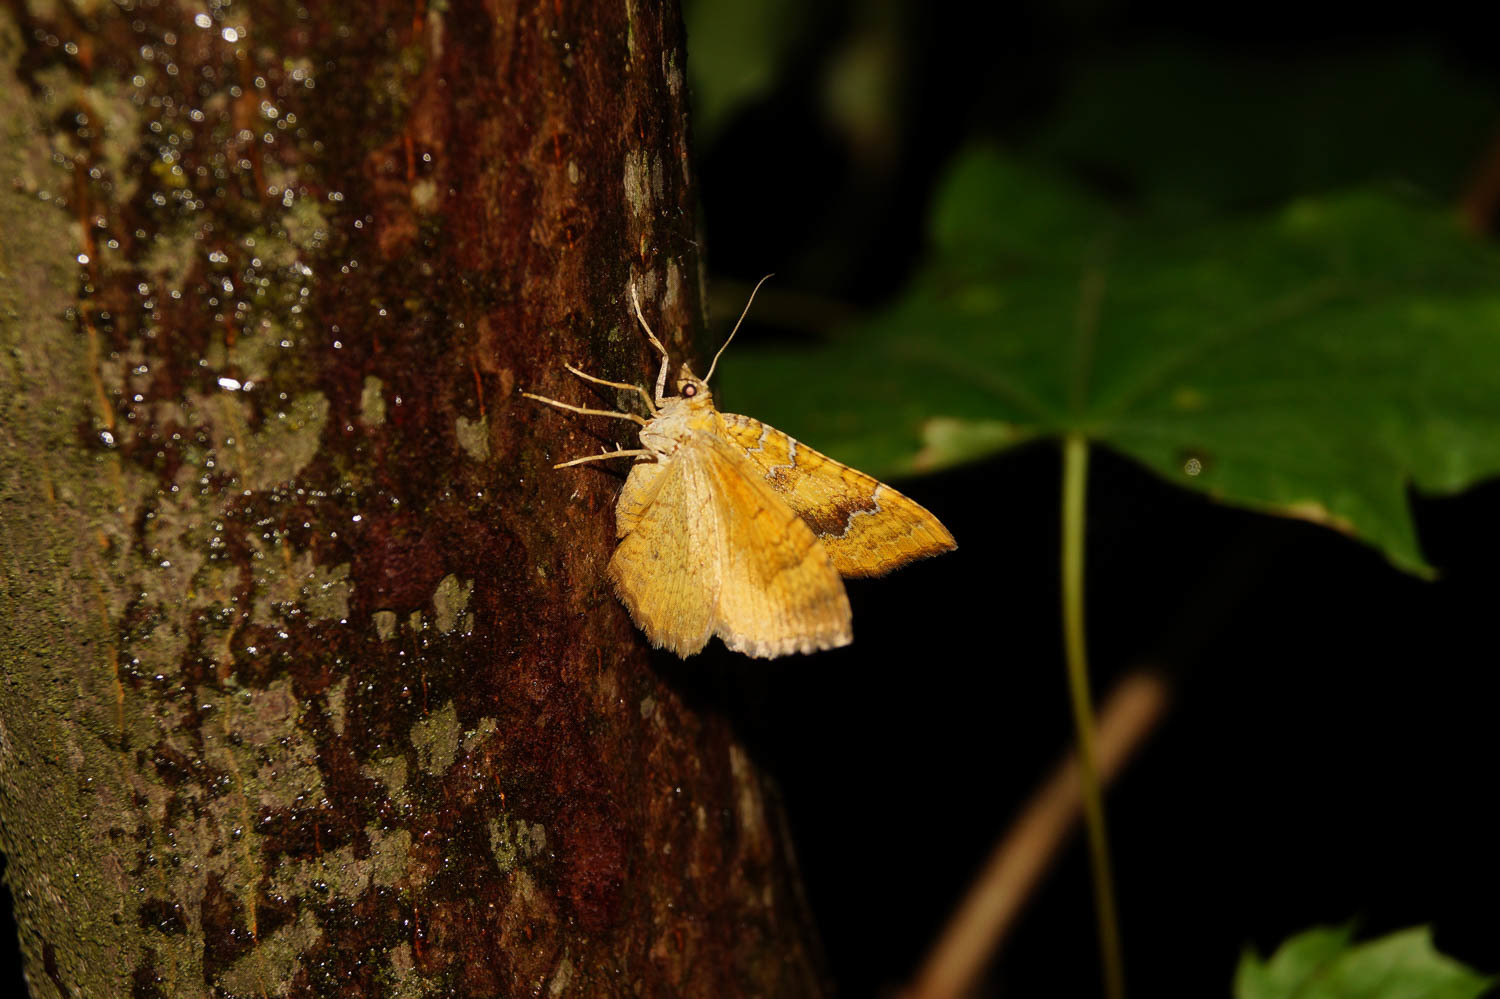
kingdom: Animalia
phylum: Arthropoda
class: Insecta
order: Lepidoptera
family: Geometridae
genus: Camptogramma
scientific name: Camptogramma bilineata
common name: Yellow shell
